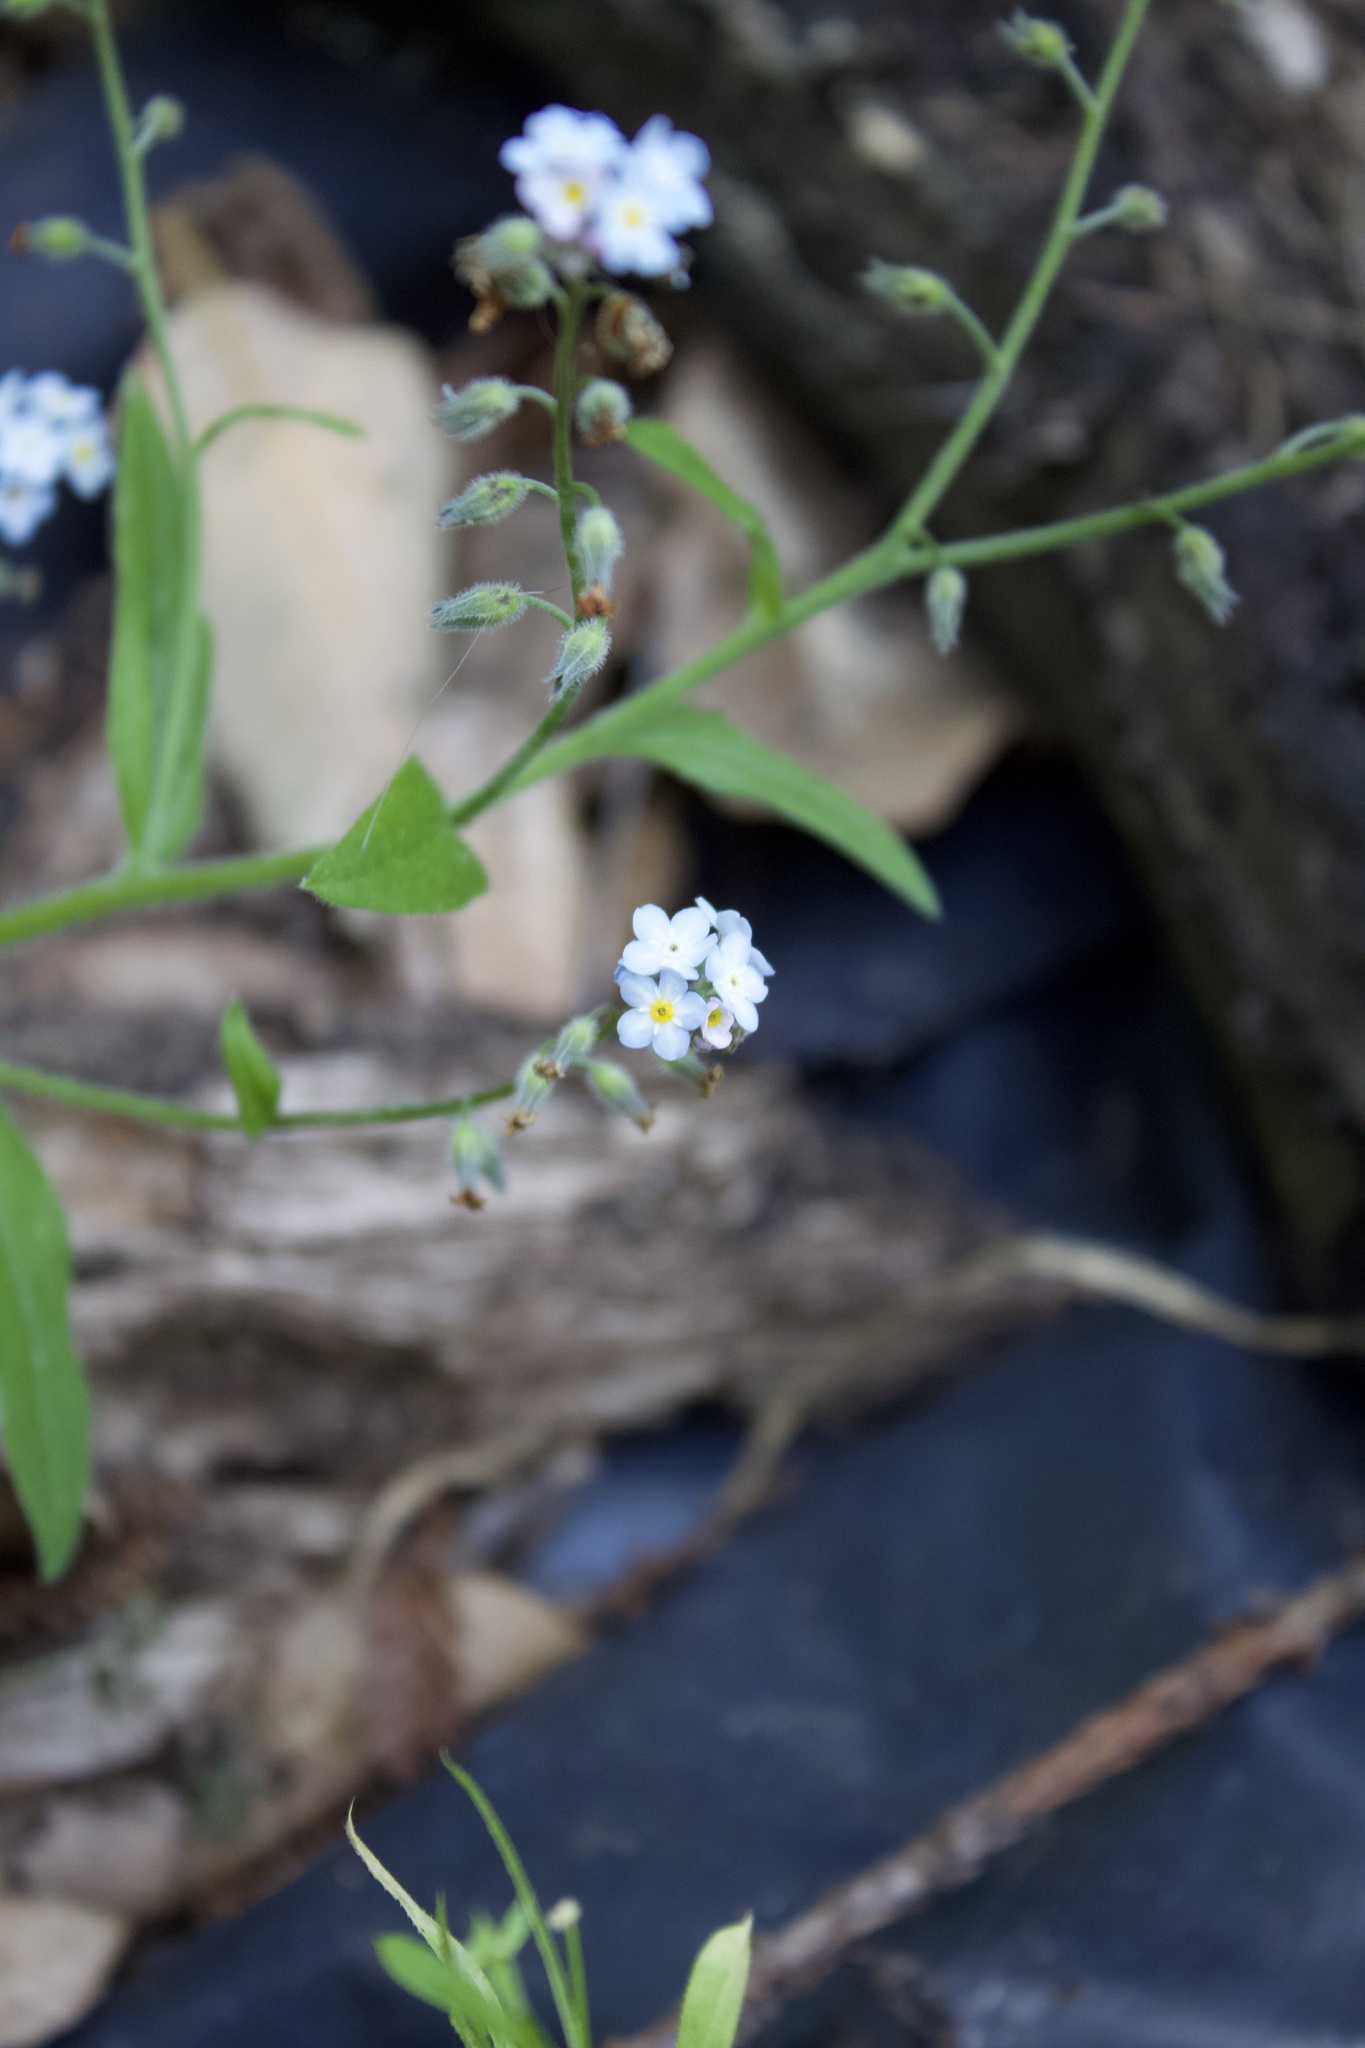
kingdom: Plantae
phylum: Tracheophyta
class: Magnoliopsida
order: Boraginales
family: Boraginaceae
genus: Myosotis
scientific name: Myosotis latifolia
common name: Broadleaf forget-me-not
